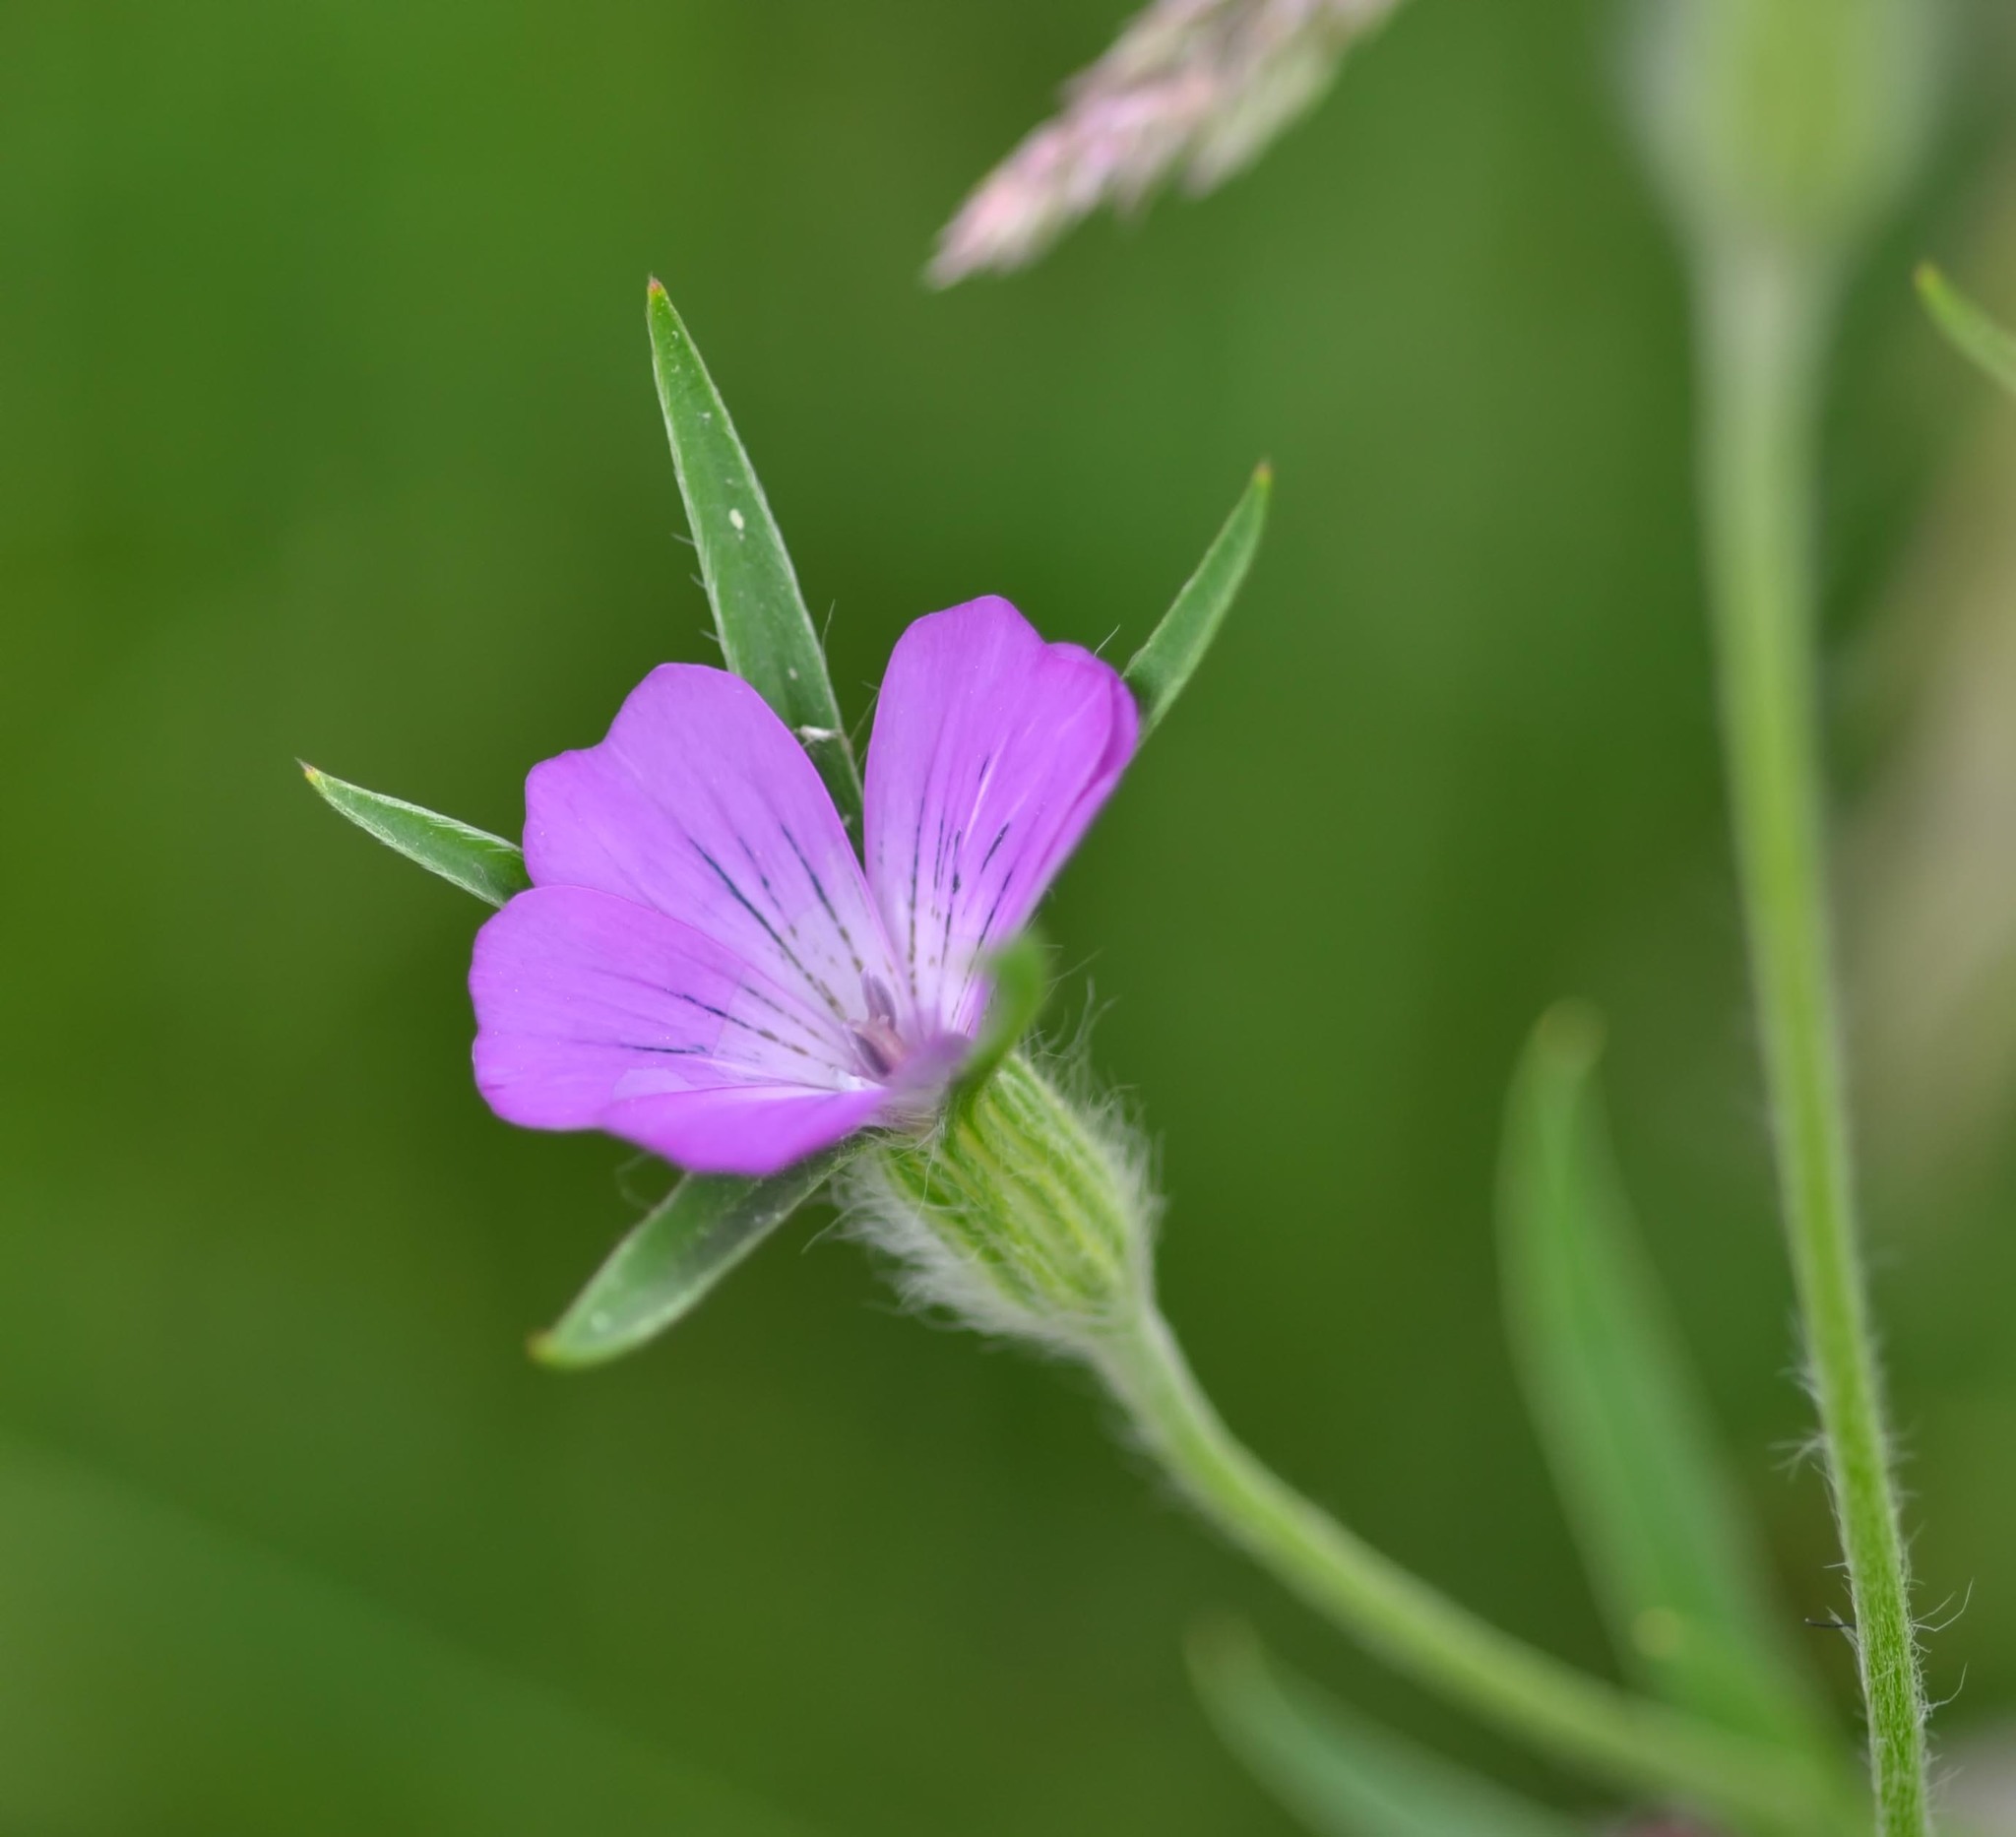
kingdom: Plantae
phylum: Tracheophyta
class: Magnoliopsida
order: Caryophyllales
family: Caryophyllaceae
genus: Agrostemma
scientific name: Agrostemma githago
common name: Common corncockle
